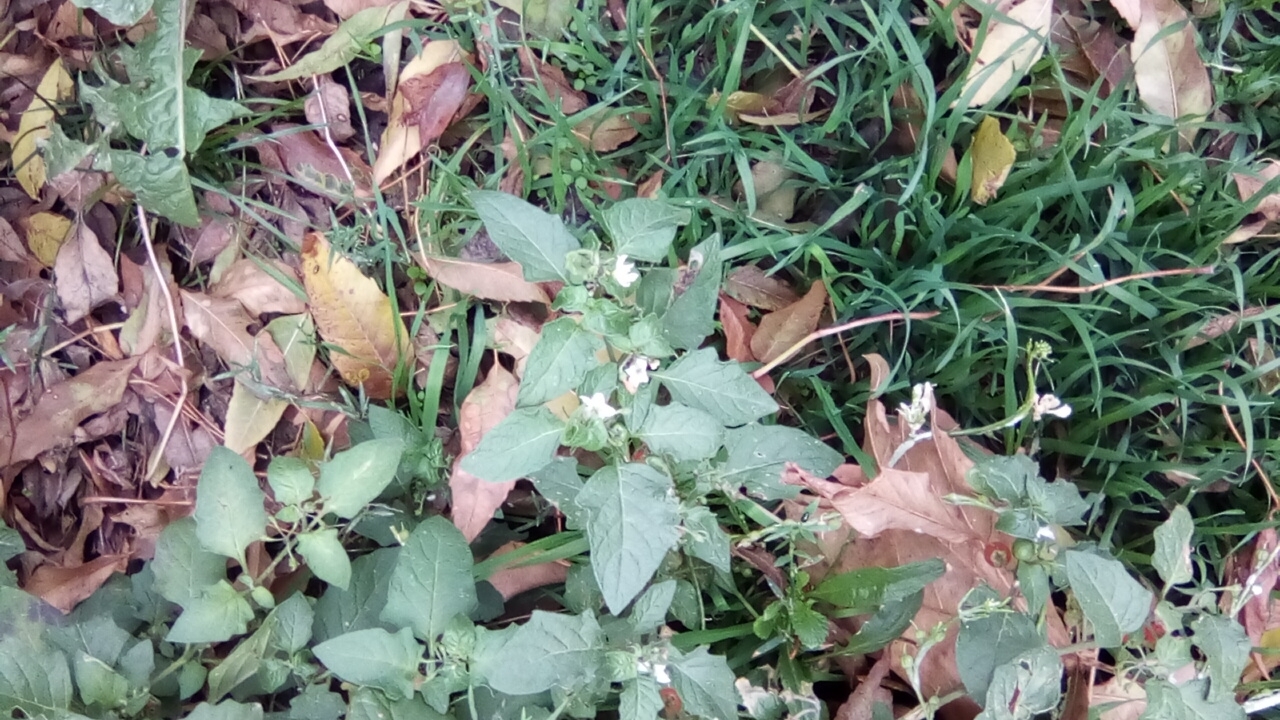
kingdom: Plantae
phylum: Tracheophyta
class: Magnoliopsida
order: Solanales
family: Solanaceae
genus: Solanum
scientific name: Solanum nigrum
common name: Black nightshade
